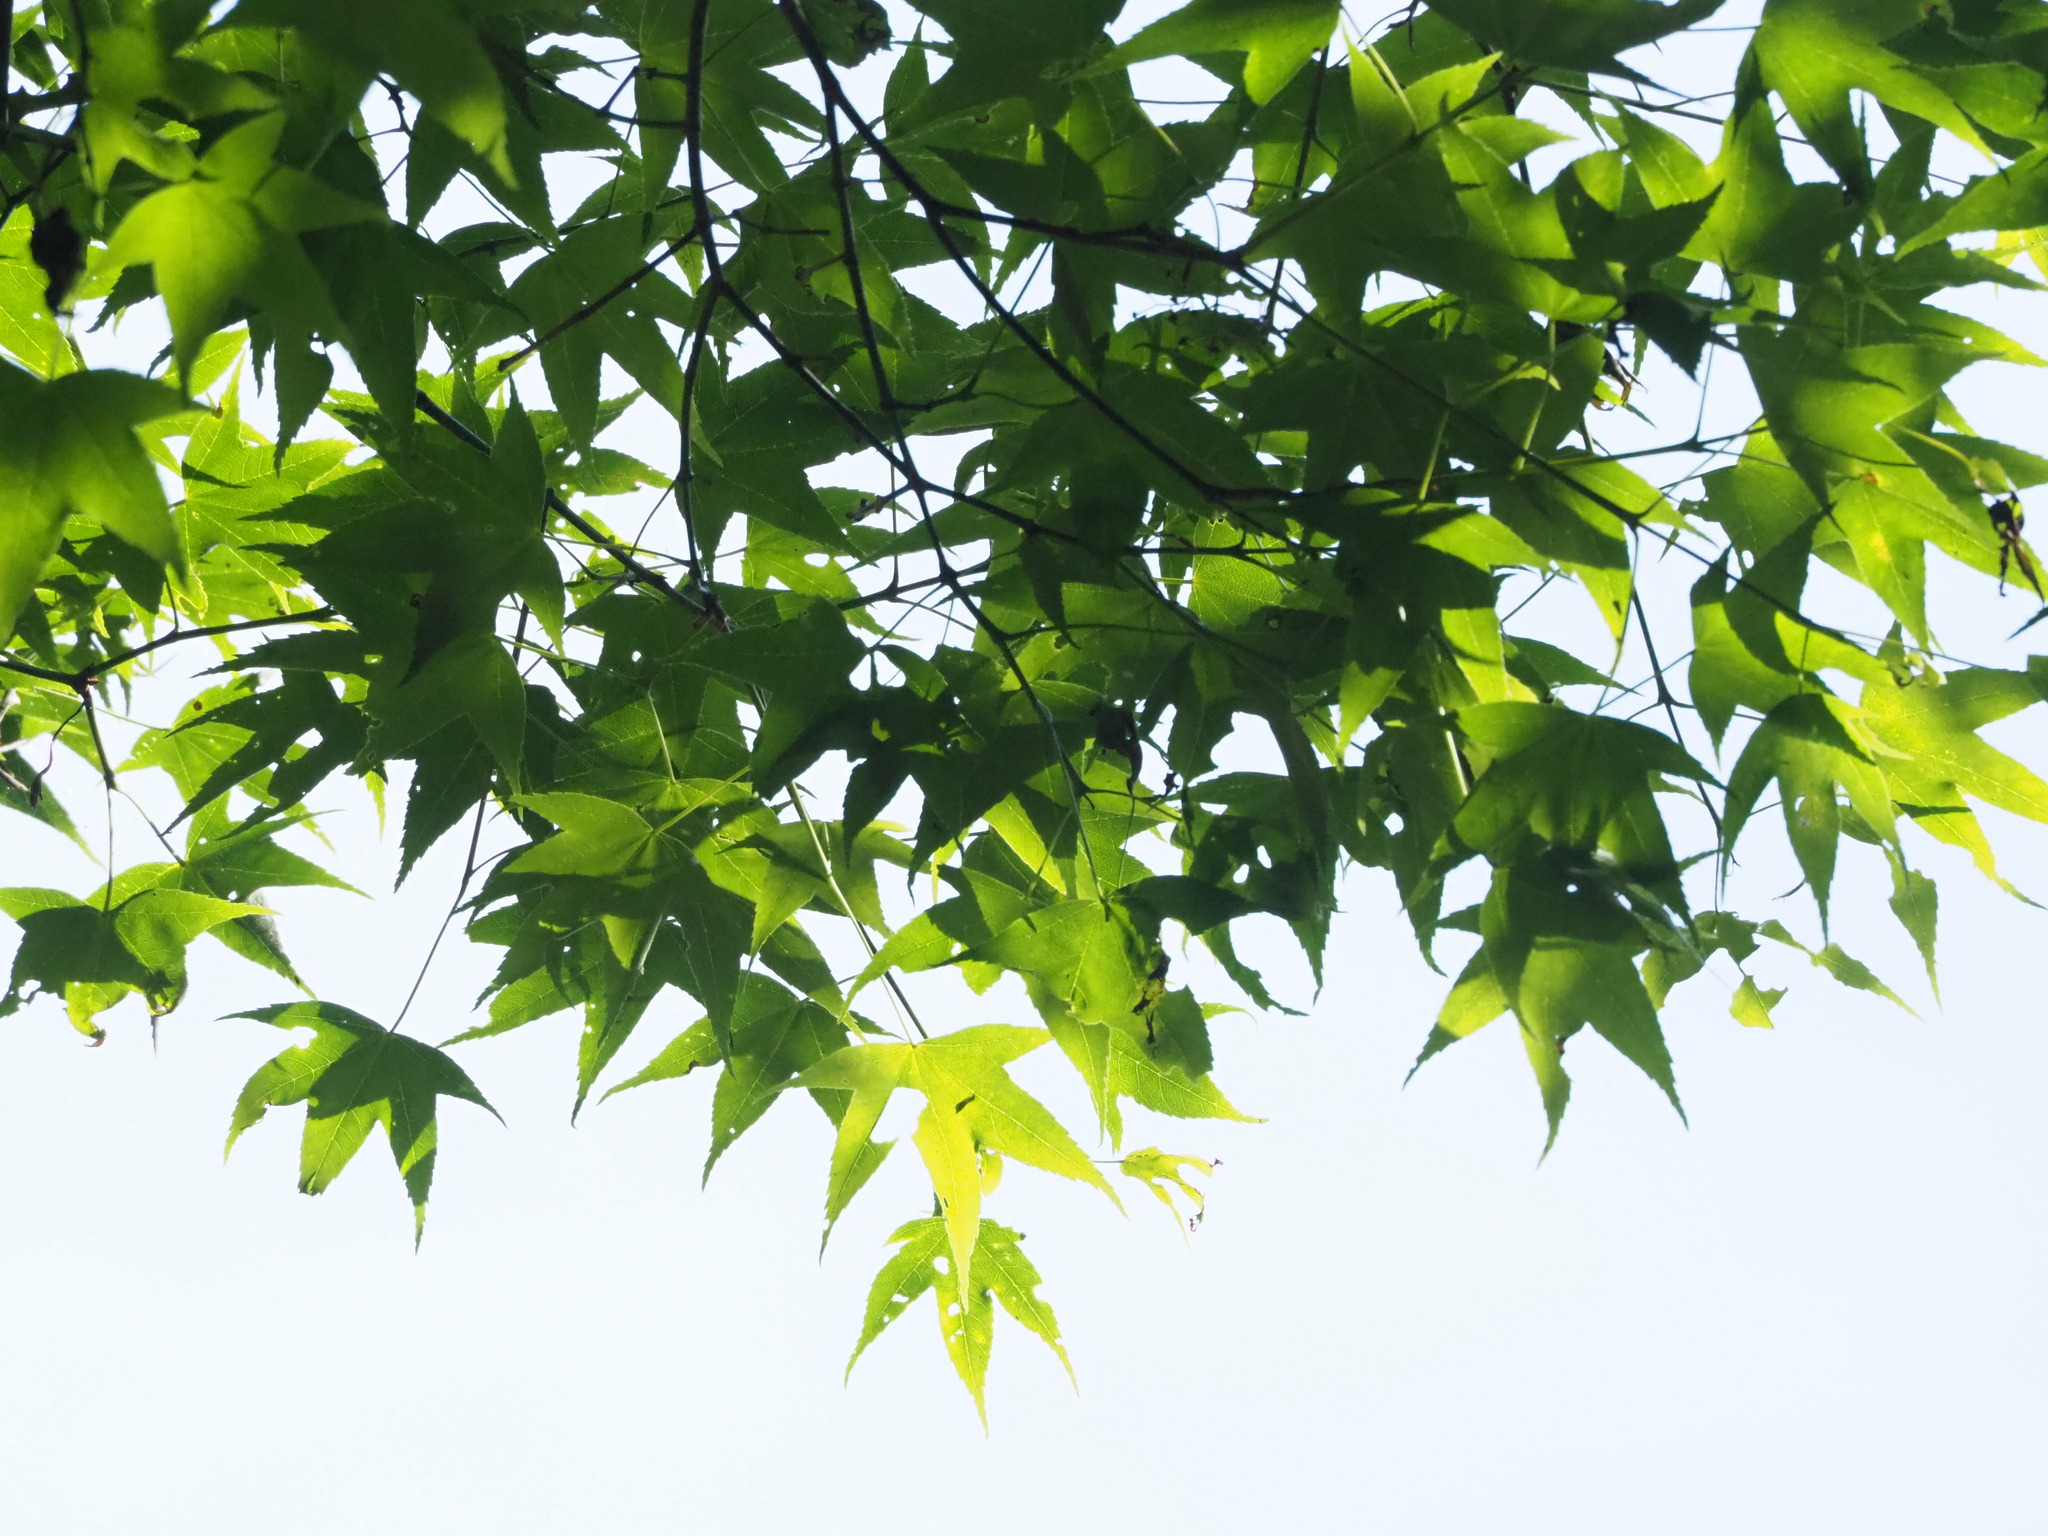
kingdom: Plantae
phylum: Tracheophyta
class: Magnoliopsida
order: Sapindales
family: Sapindaceae
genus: Acer
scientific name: Acer serrulatum
